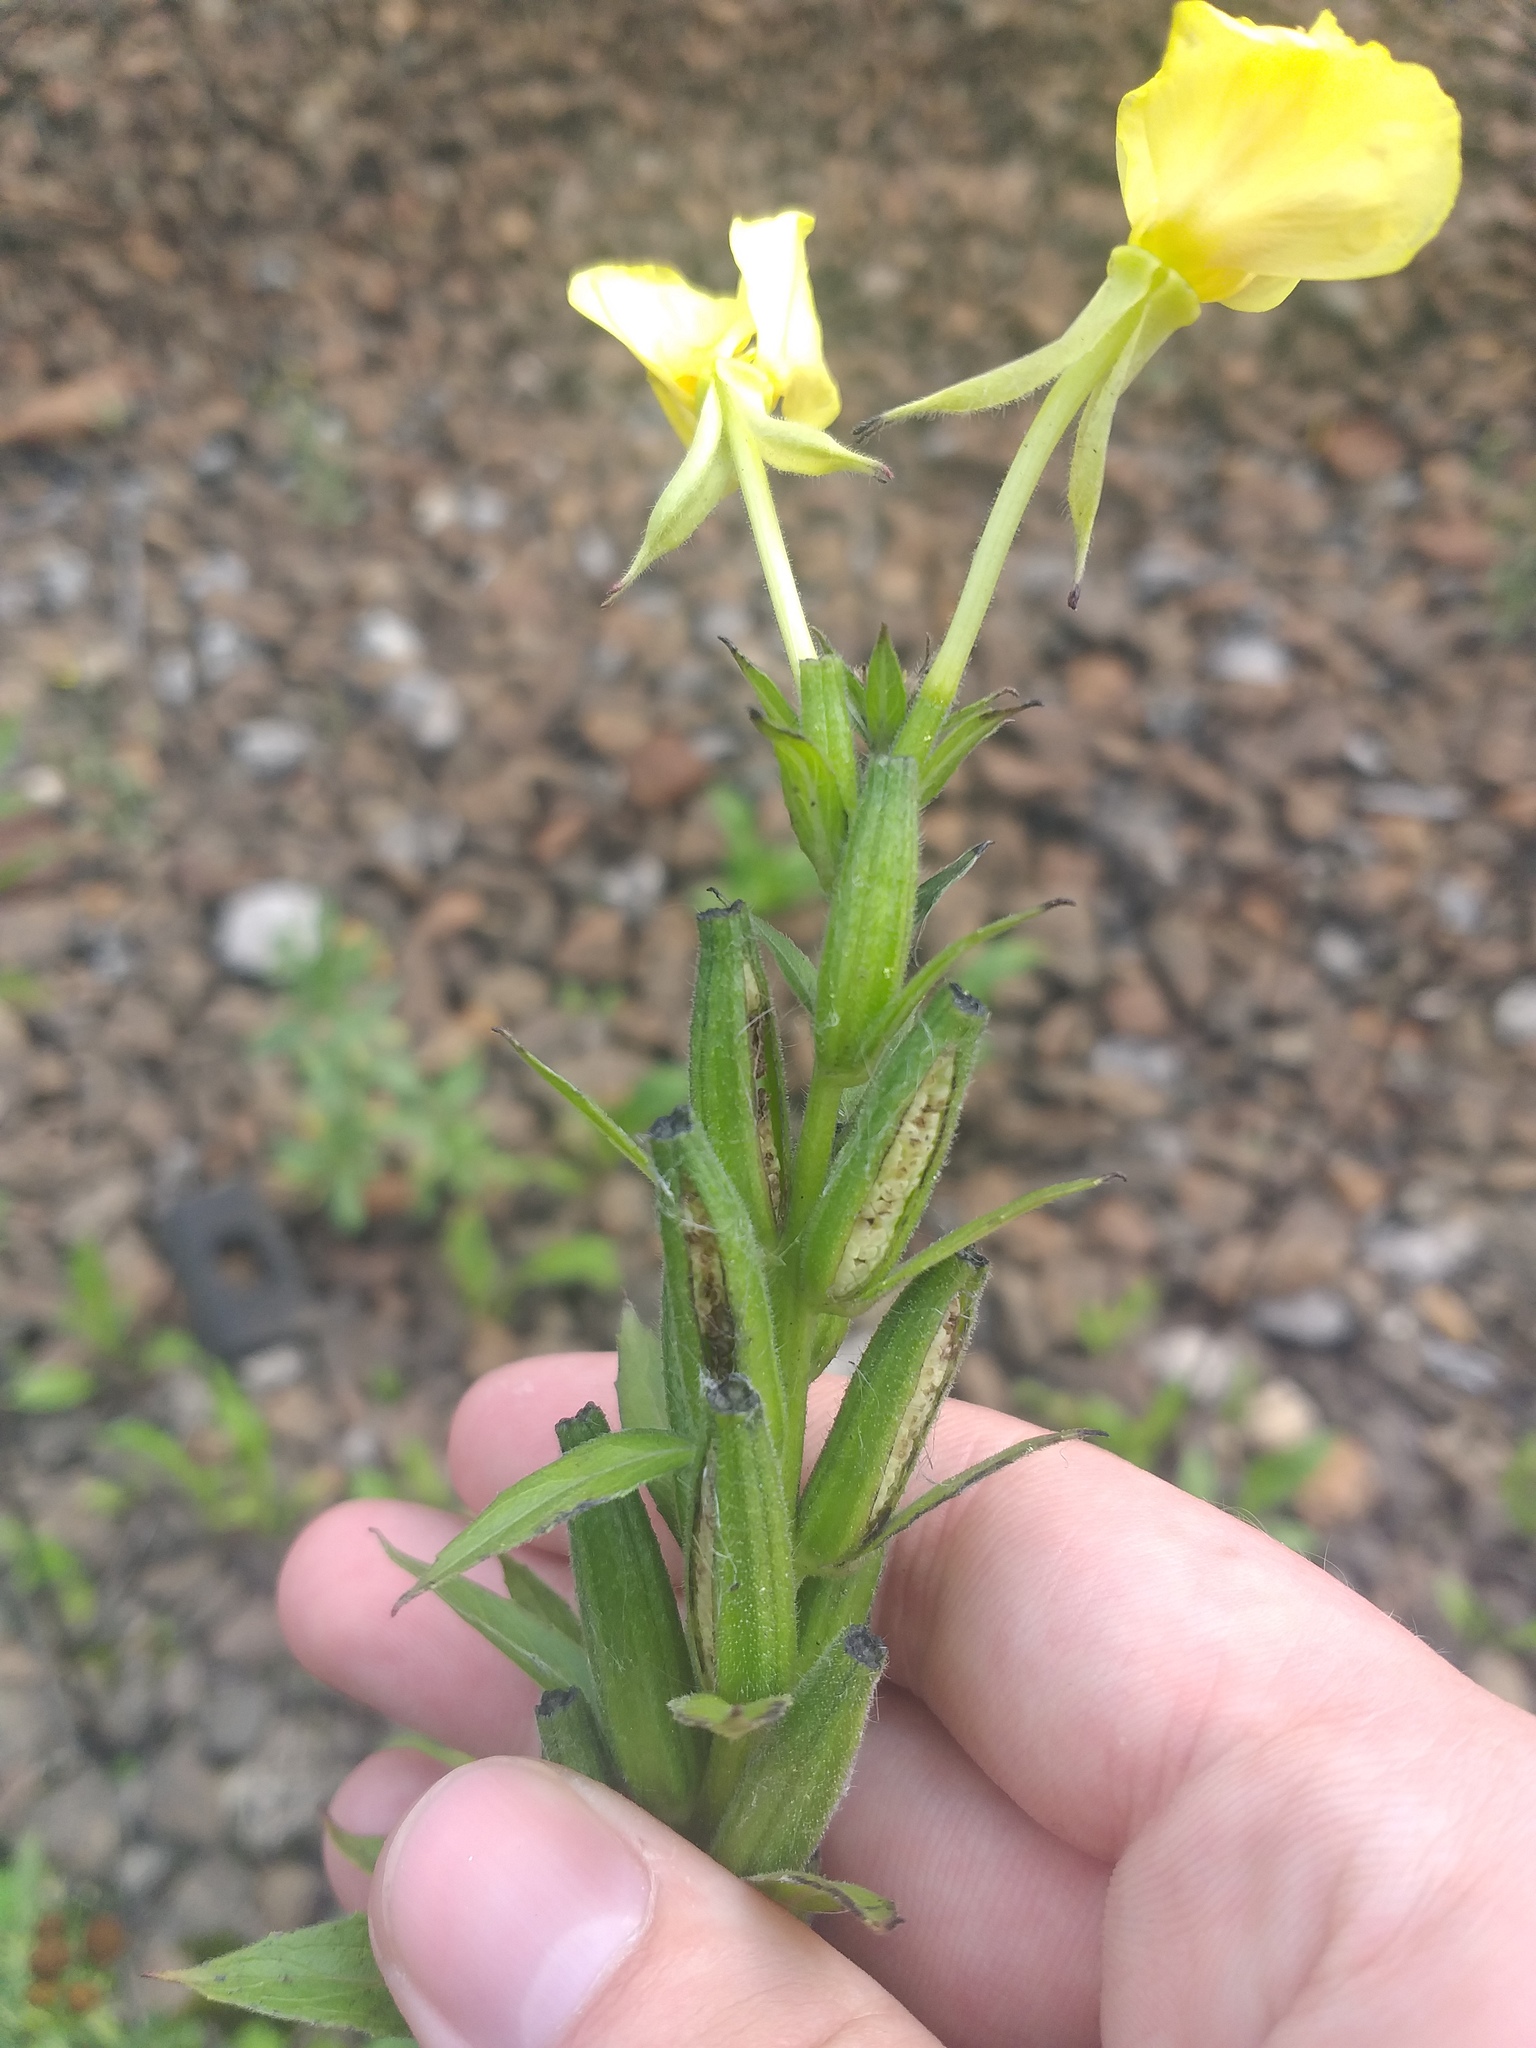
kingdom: Plantae
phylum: Tracheophyta
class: Magnoliopsida
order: Myrtales
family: Onagraceae
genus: Oenothera
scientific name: Oenothera biennis
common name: Common evening-primrose
